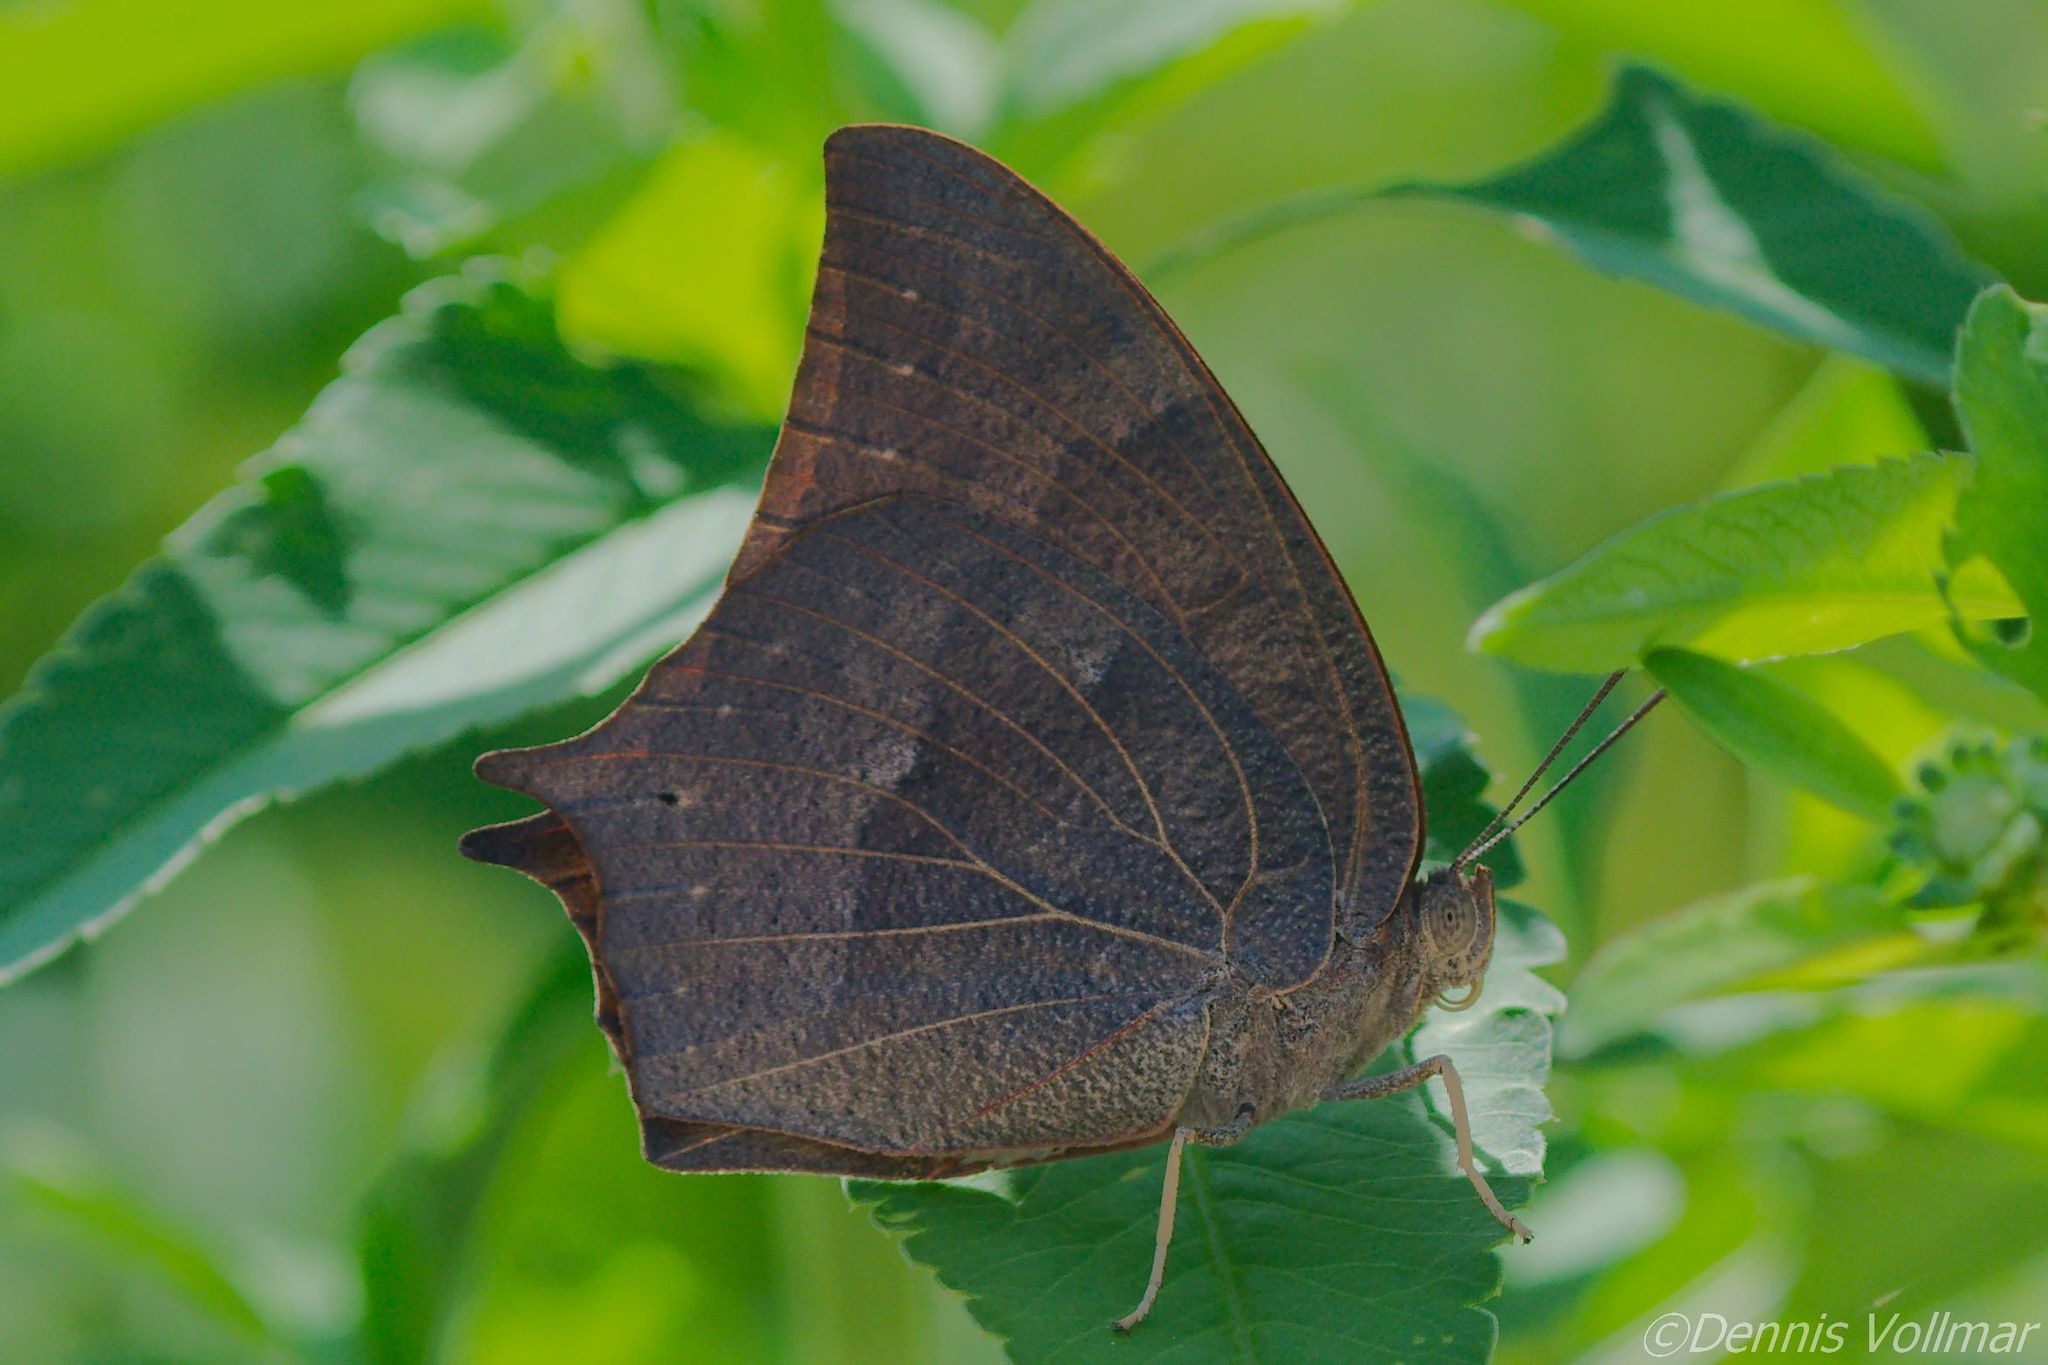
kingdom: Animalia
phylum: Arthropoda
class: Insecta
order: Lepidoptera
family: Nymphalidae
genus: Anaea
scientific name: Anaea andria
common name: Goatweed leafwing
